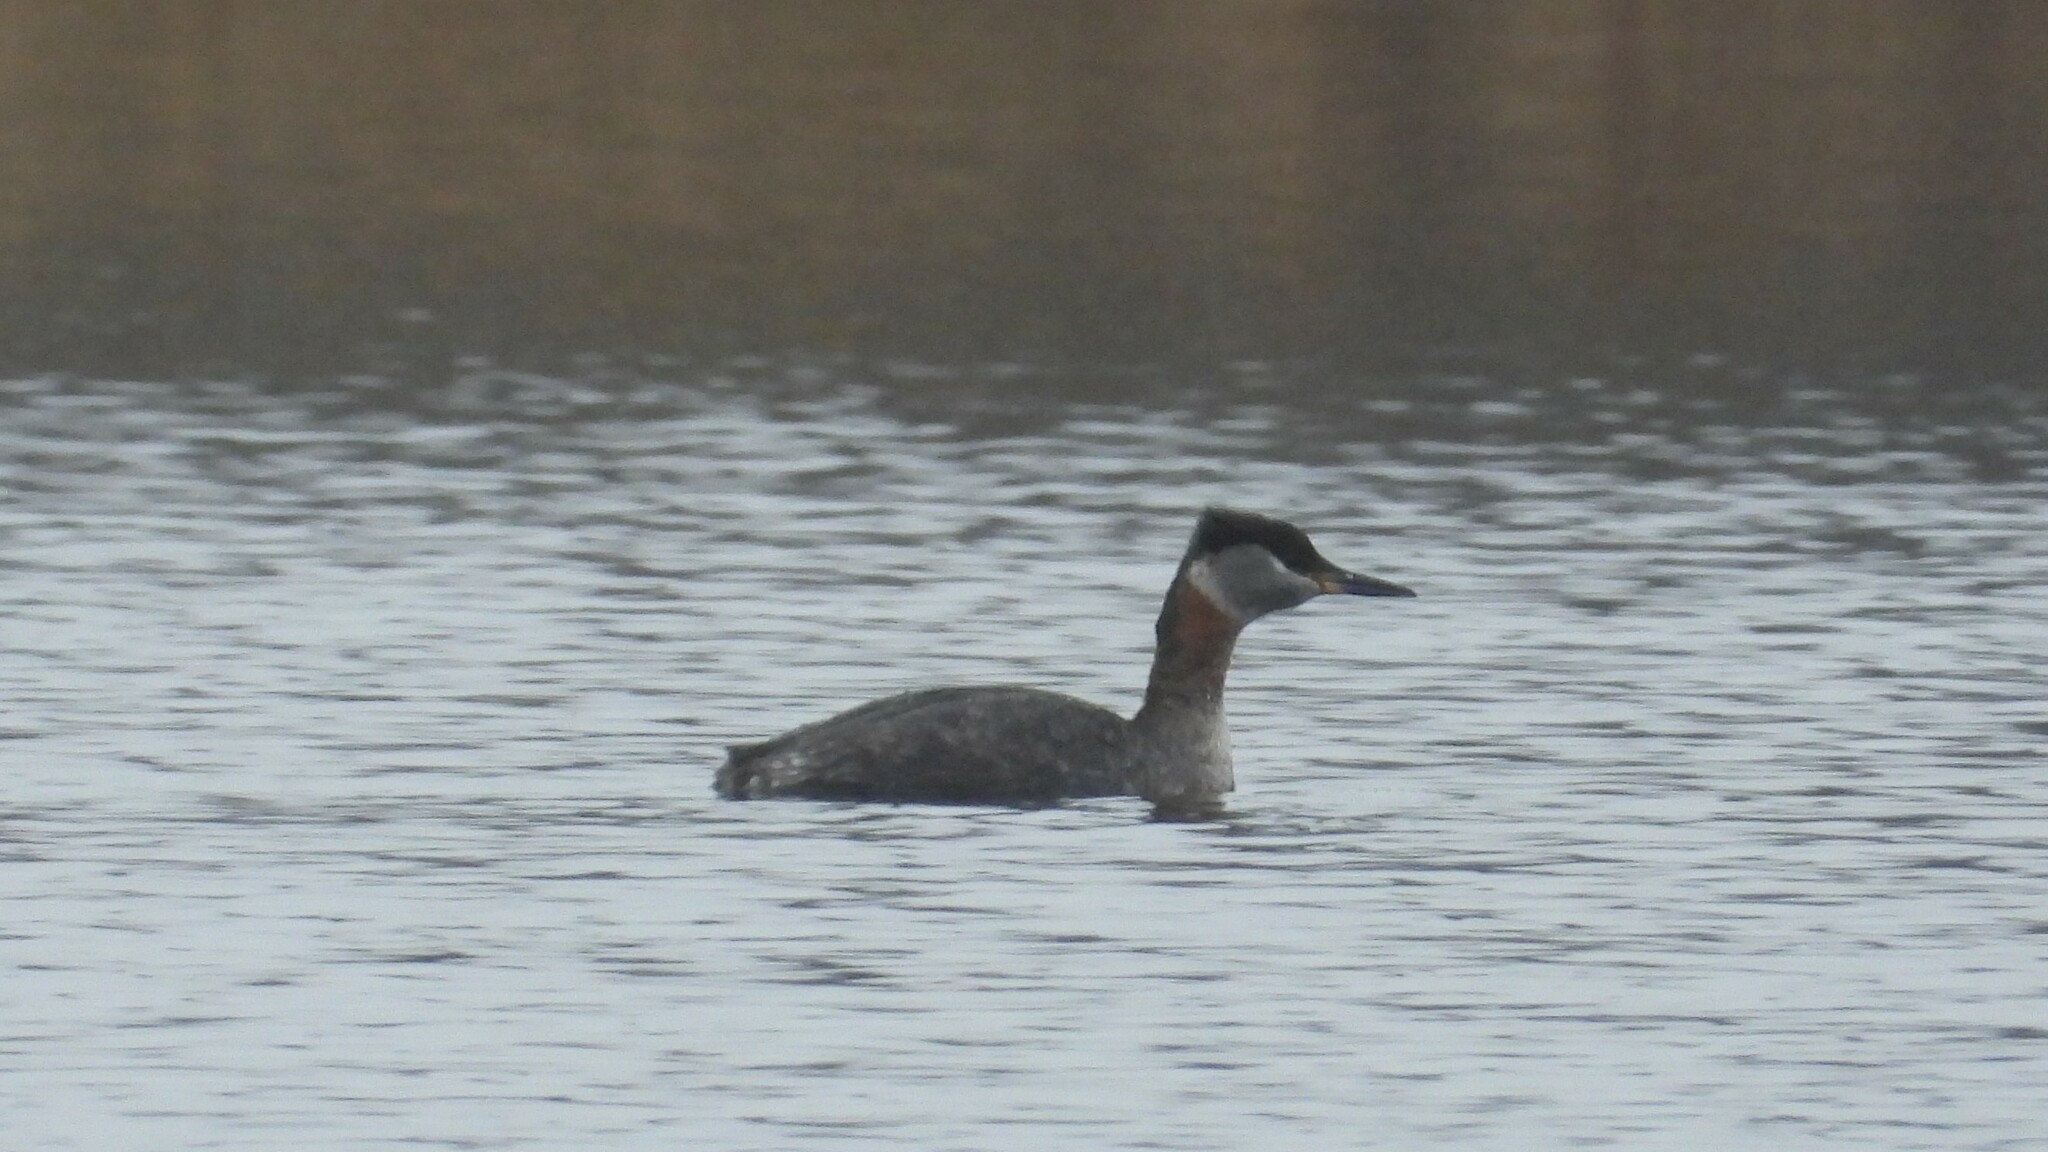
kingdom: Animalia
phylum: Chordata
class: Aves
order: Podicipediformes
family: Podicipedidae
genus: Podiceps
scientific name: Podiceps grisegena
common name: Red-necked grebe
